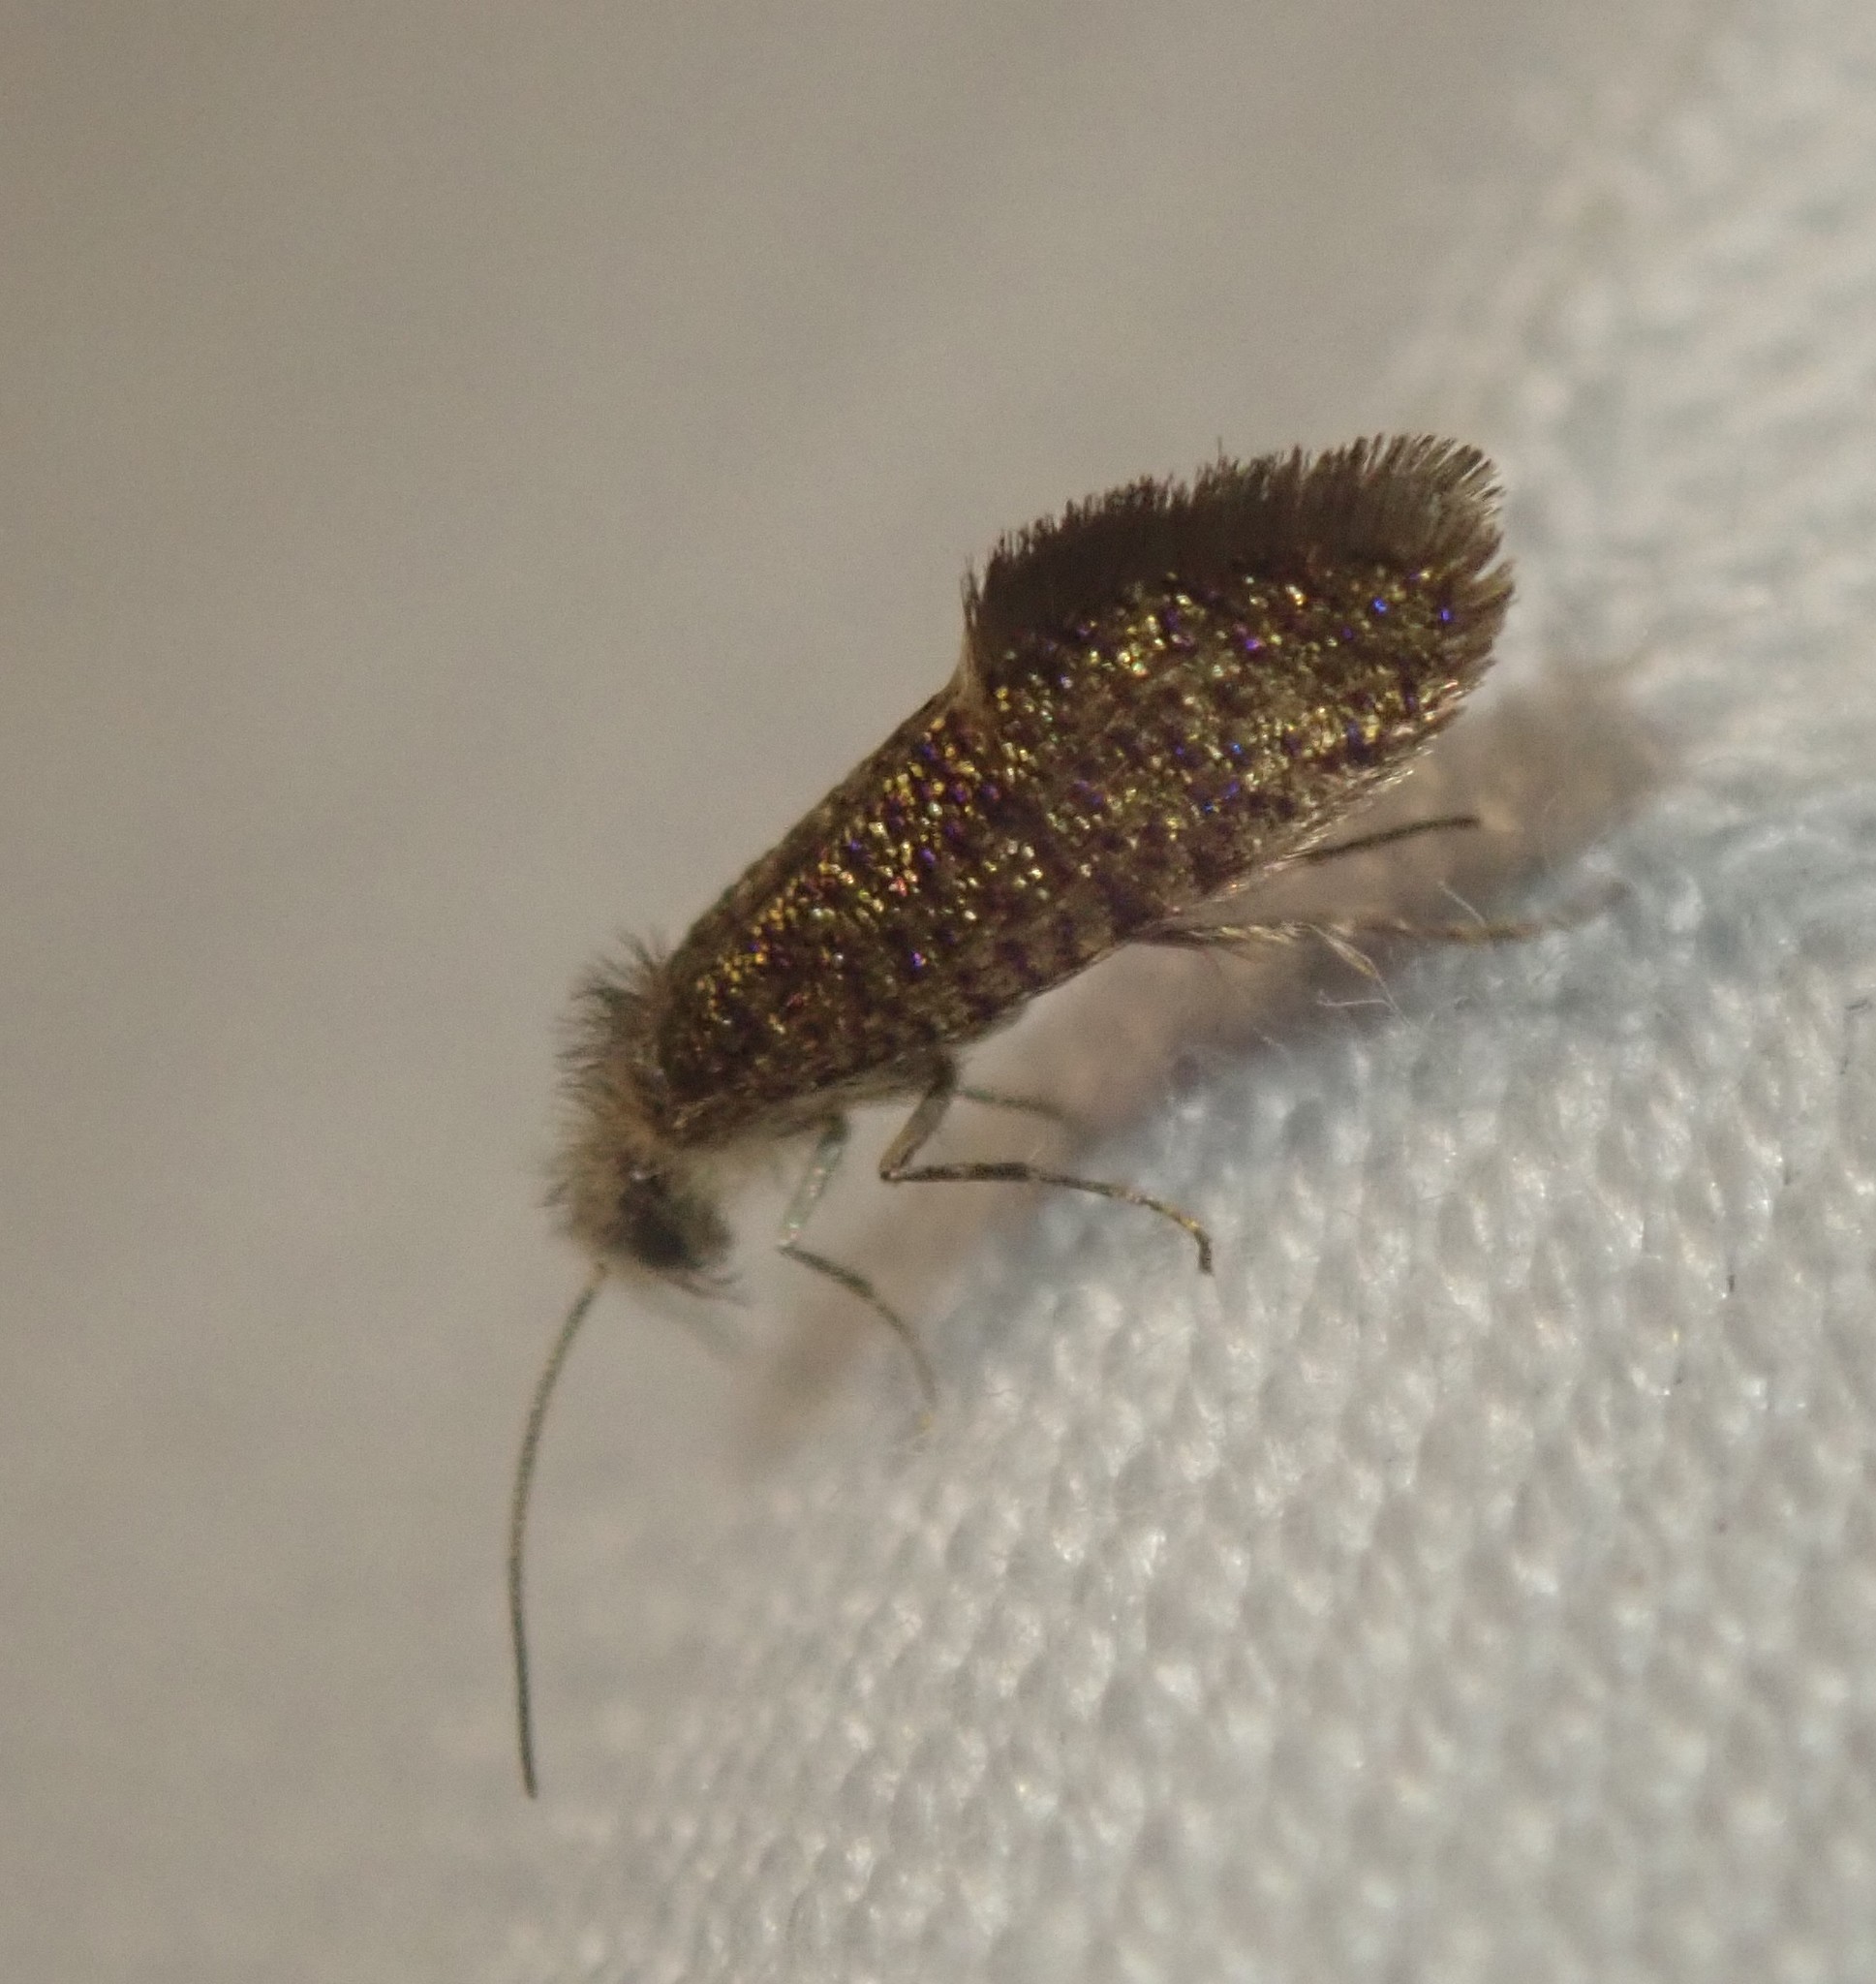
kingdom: Animalia
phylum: Arthropoda
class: Insecta
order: Lepidoptera
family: Eriocraniidae
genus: Dyseriocrania
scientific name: Dyseriocrania subpurpurella
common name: Common oak purple
